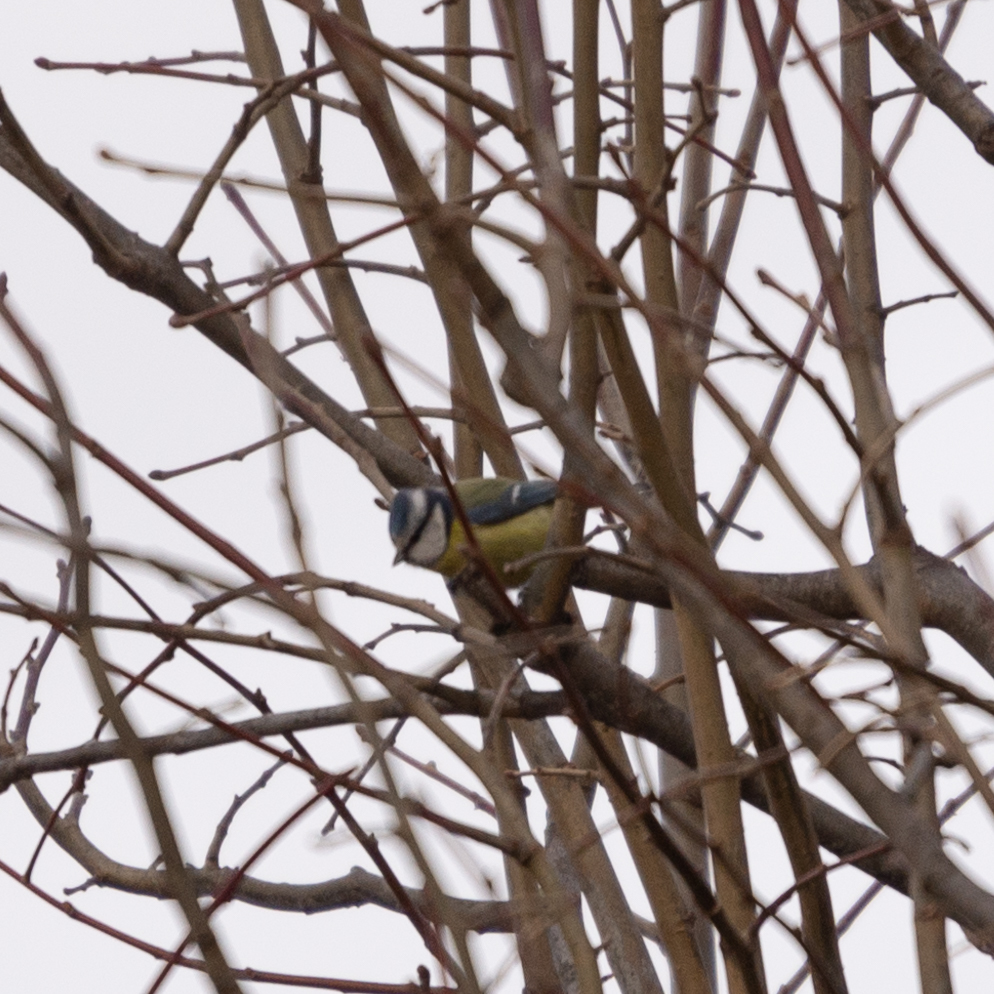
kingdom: Animalia
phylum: Chordata
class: Aves
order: Passeriformes
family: Paridae
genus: Cyanistes
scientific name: Cyanistes caeruleus
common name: Eurasian blue tit
